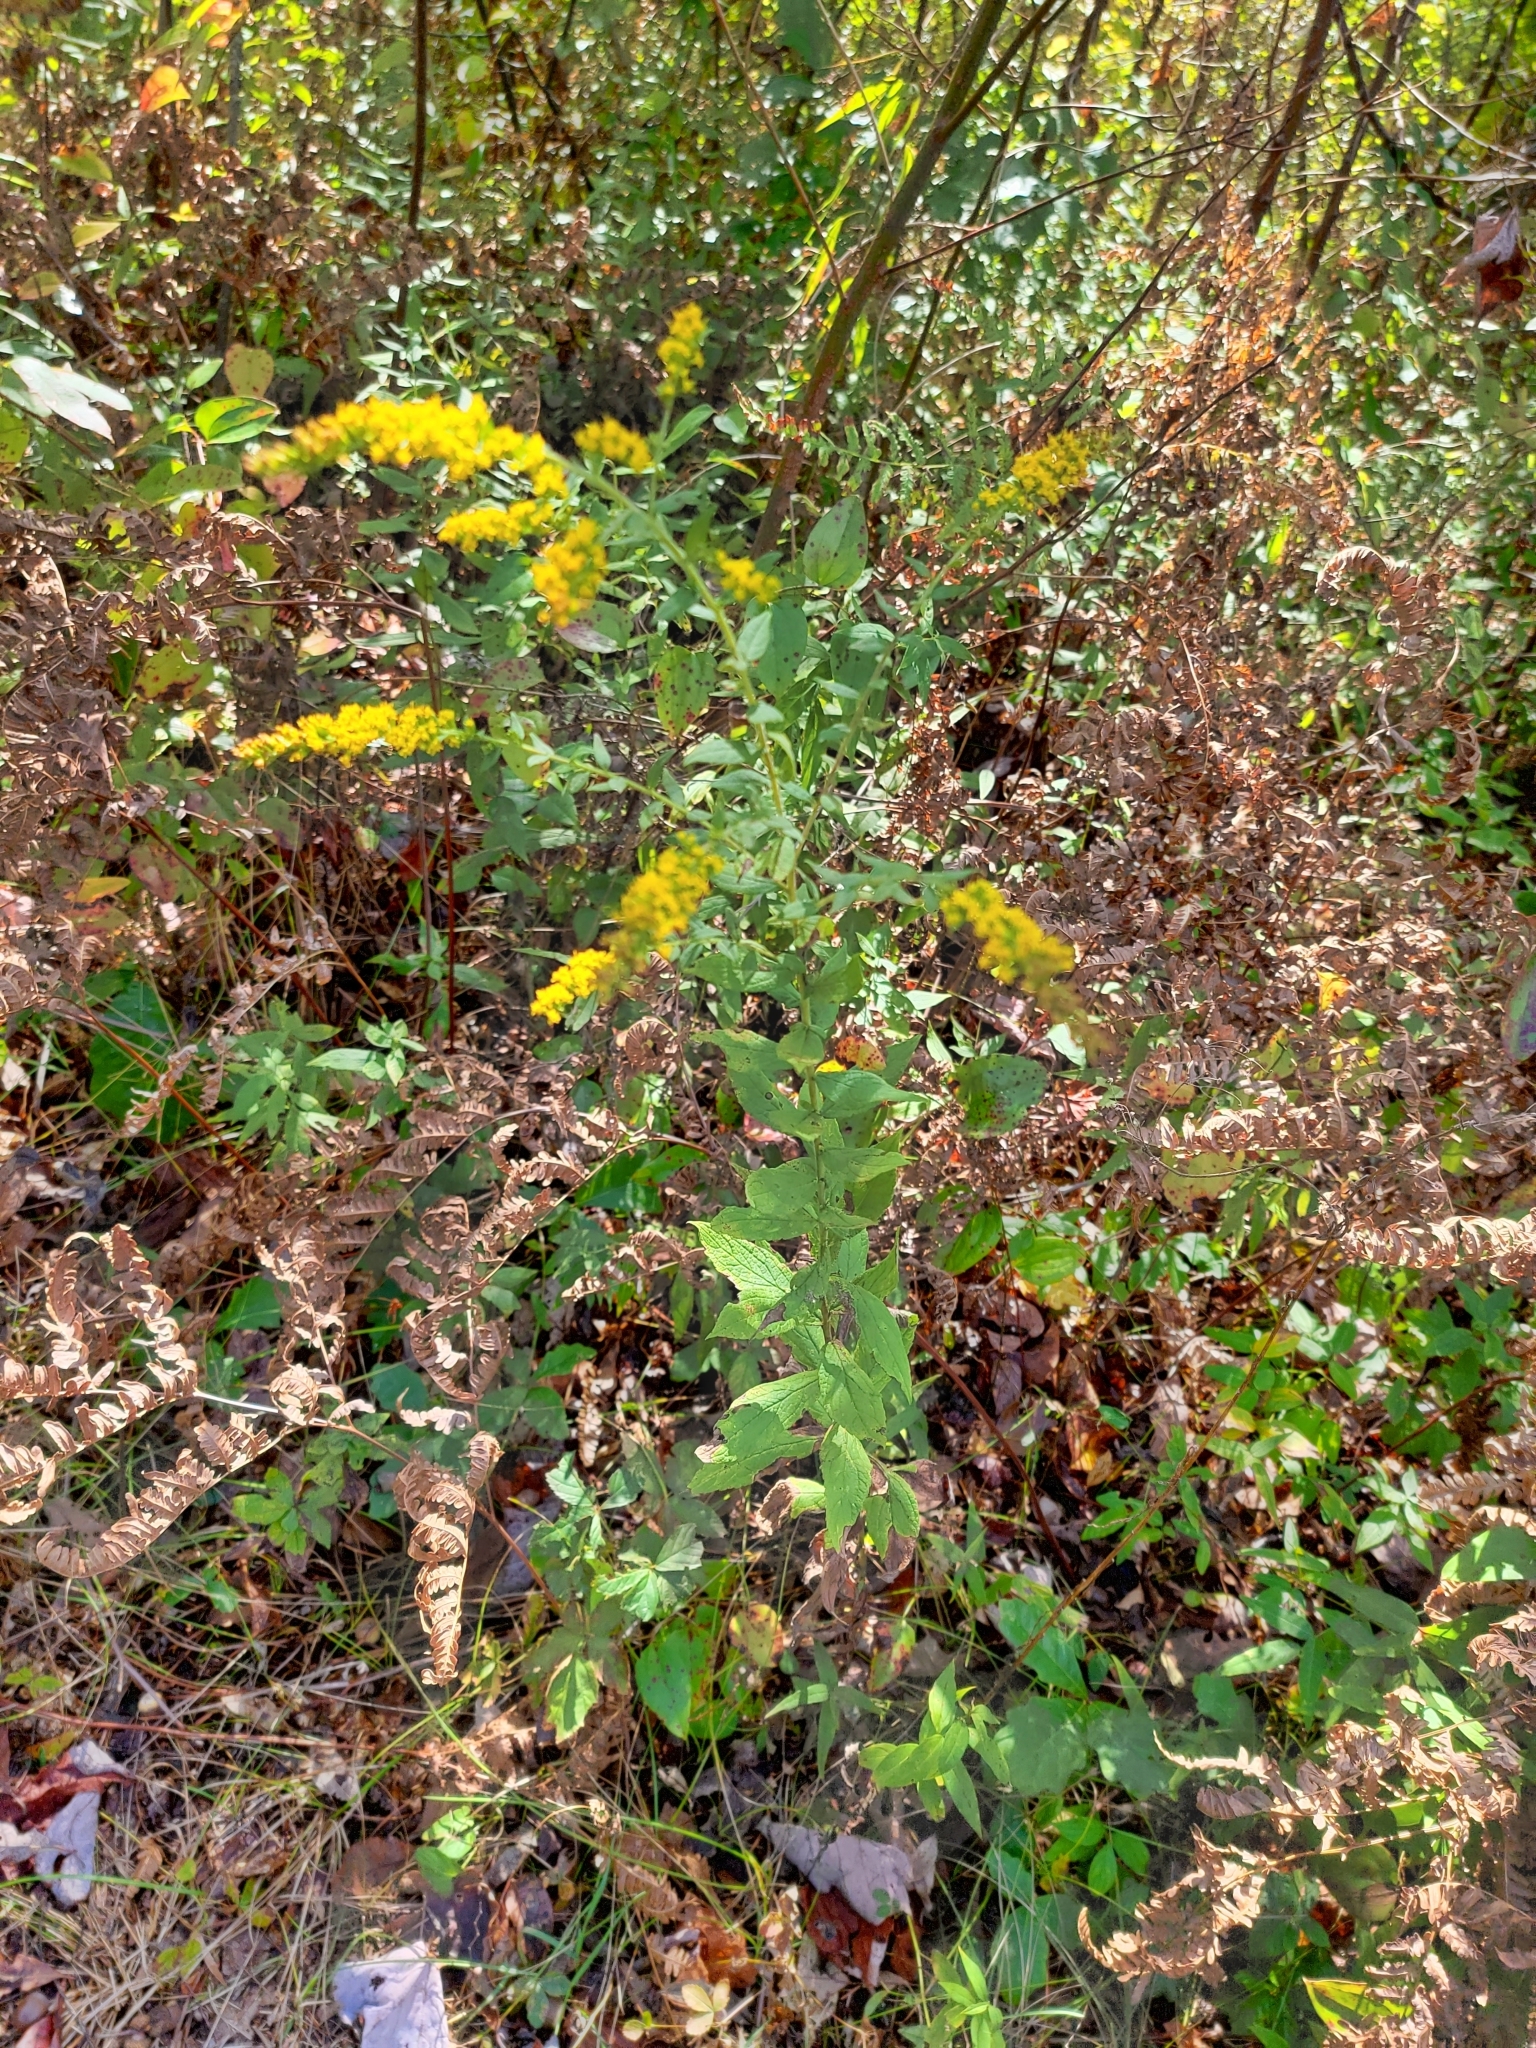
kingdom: Plantae
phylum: Tracheophyta
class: Magnoliopsida
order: Asterales
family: Asteraceae
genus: Solidago
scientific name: Solidago rugosa
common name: Rough-stemmed goldenrod
